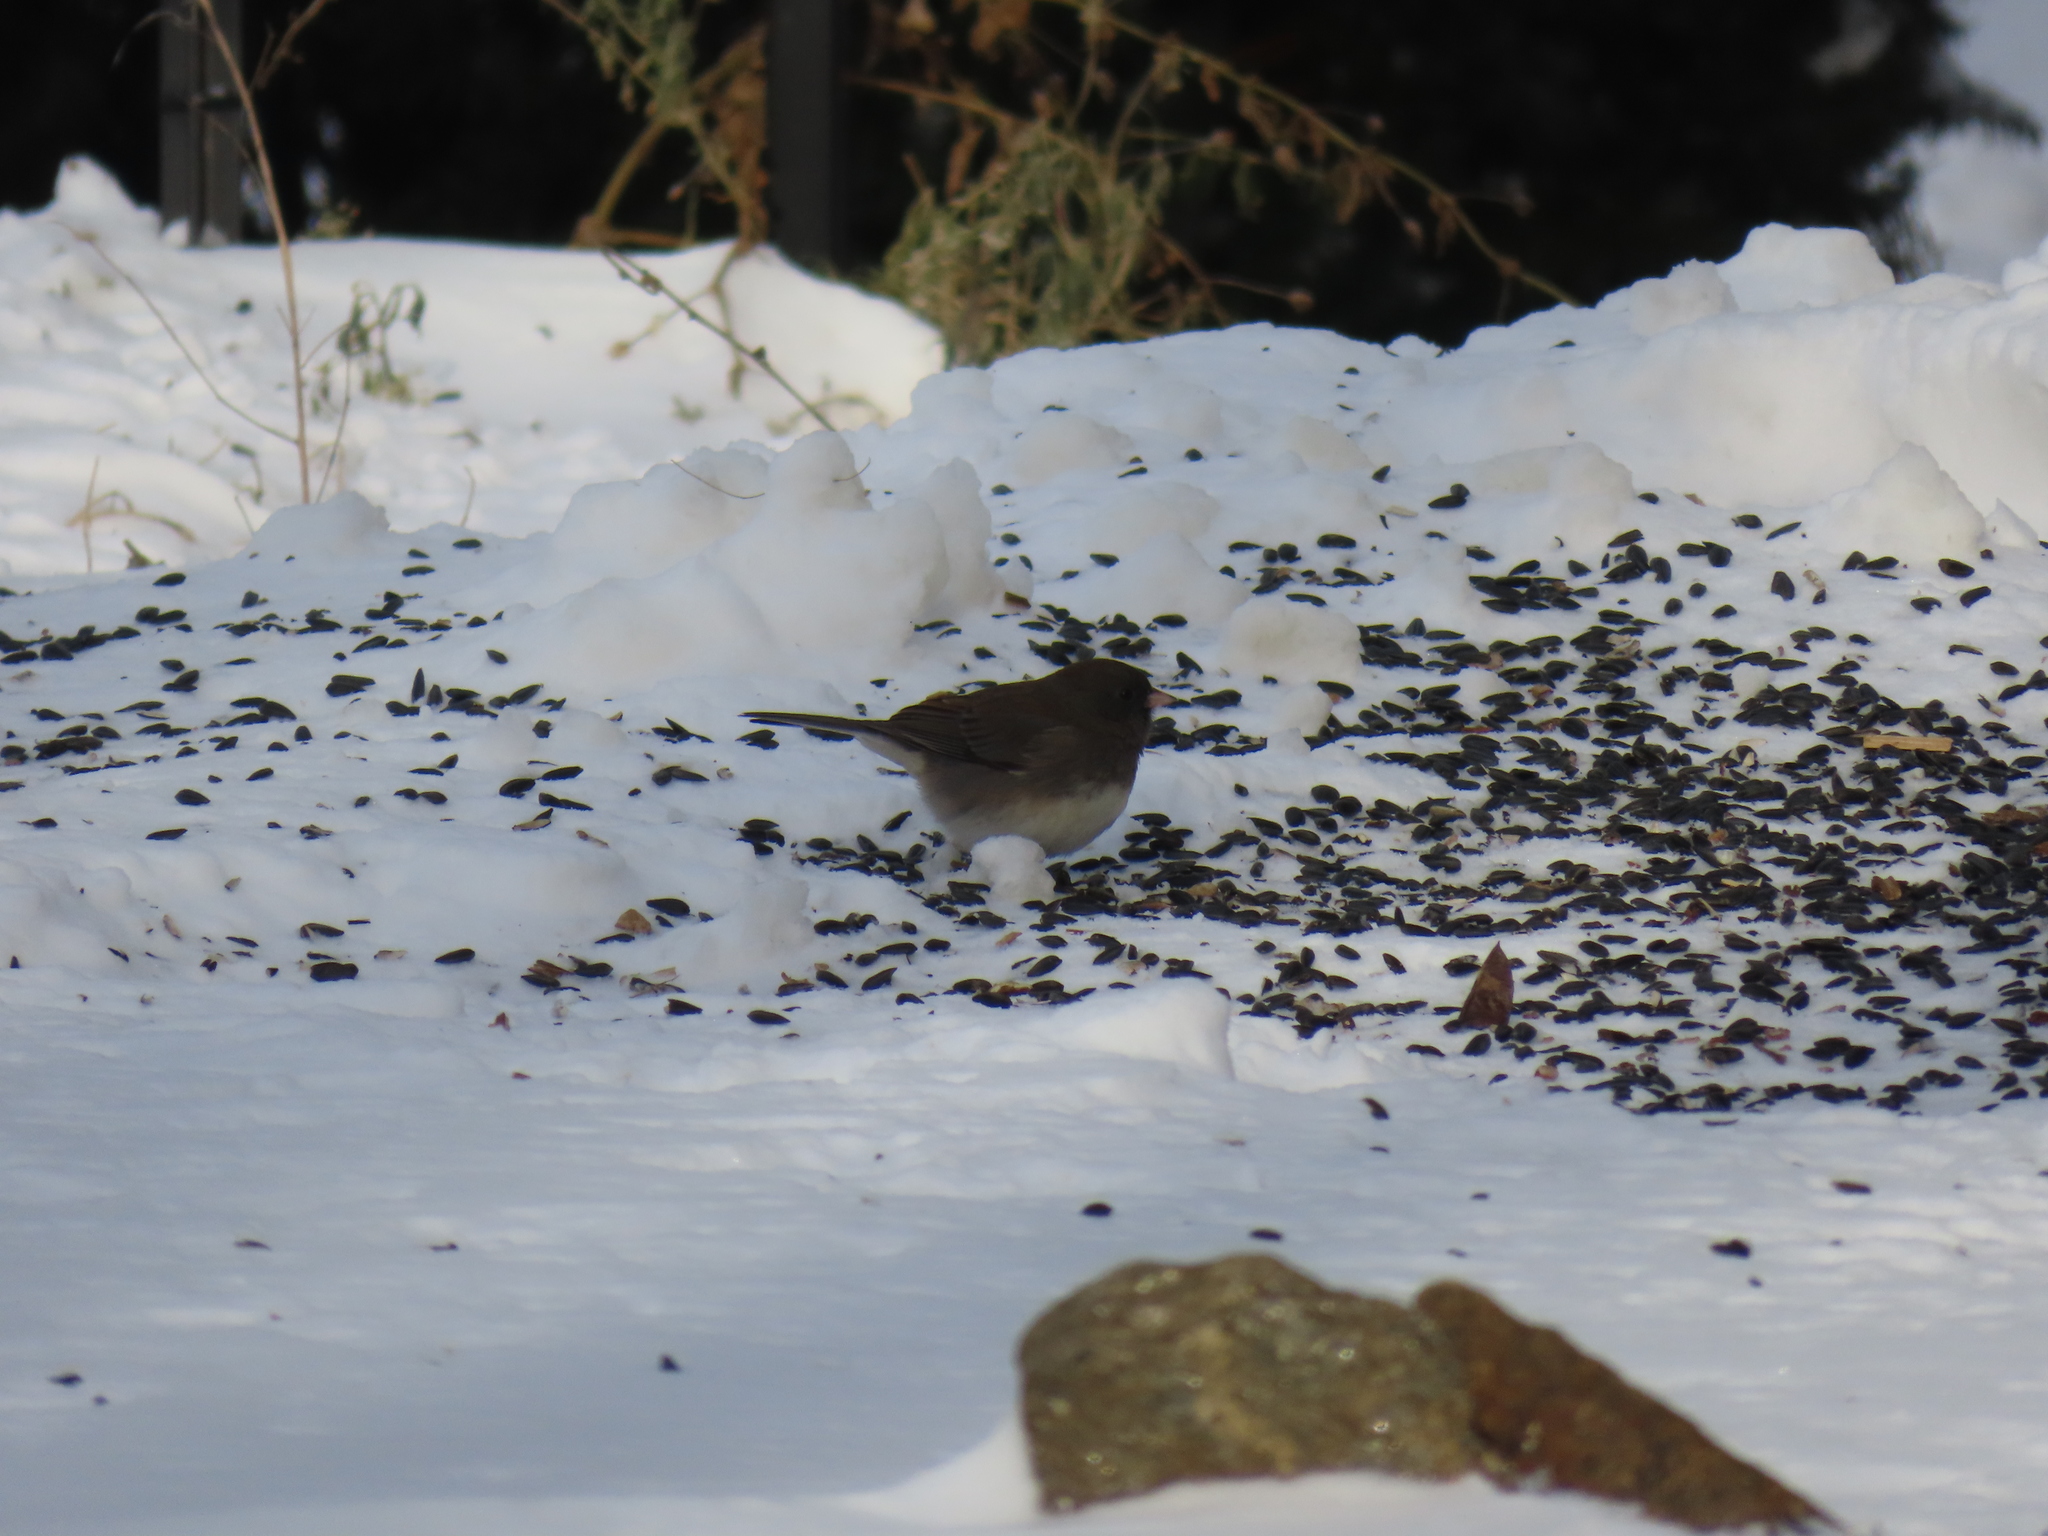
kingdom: Animalia
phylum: Chordata
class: Aves
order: Passeriformes
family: Passerellidae
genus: Junco
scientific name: Junco hyemalis
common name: Dark-eyed junco
